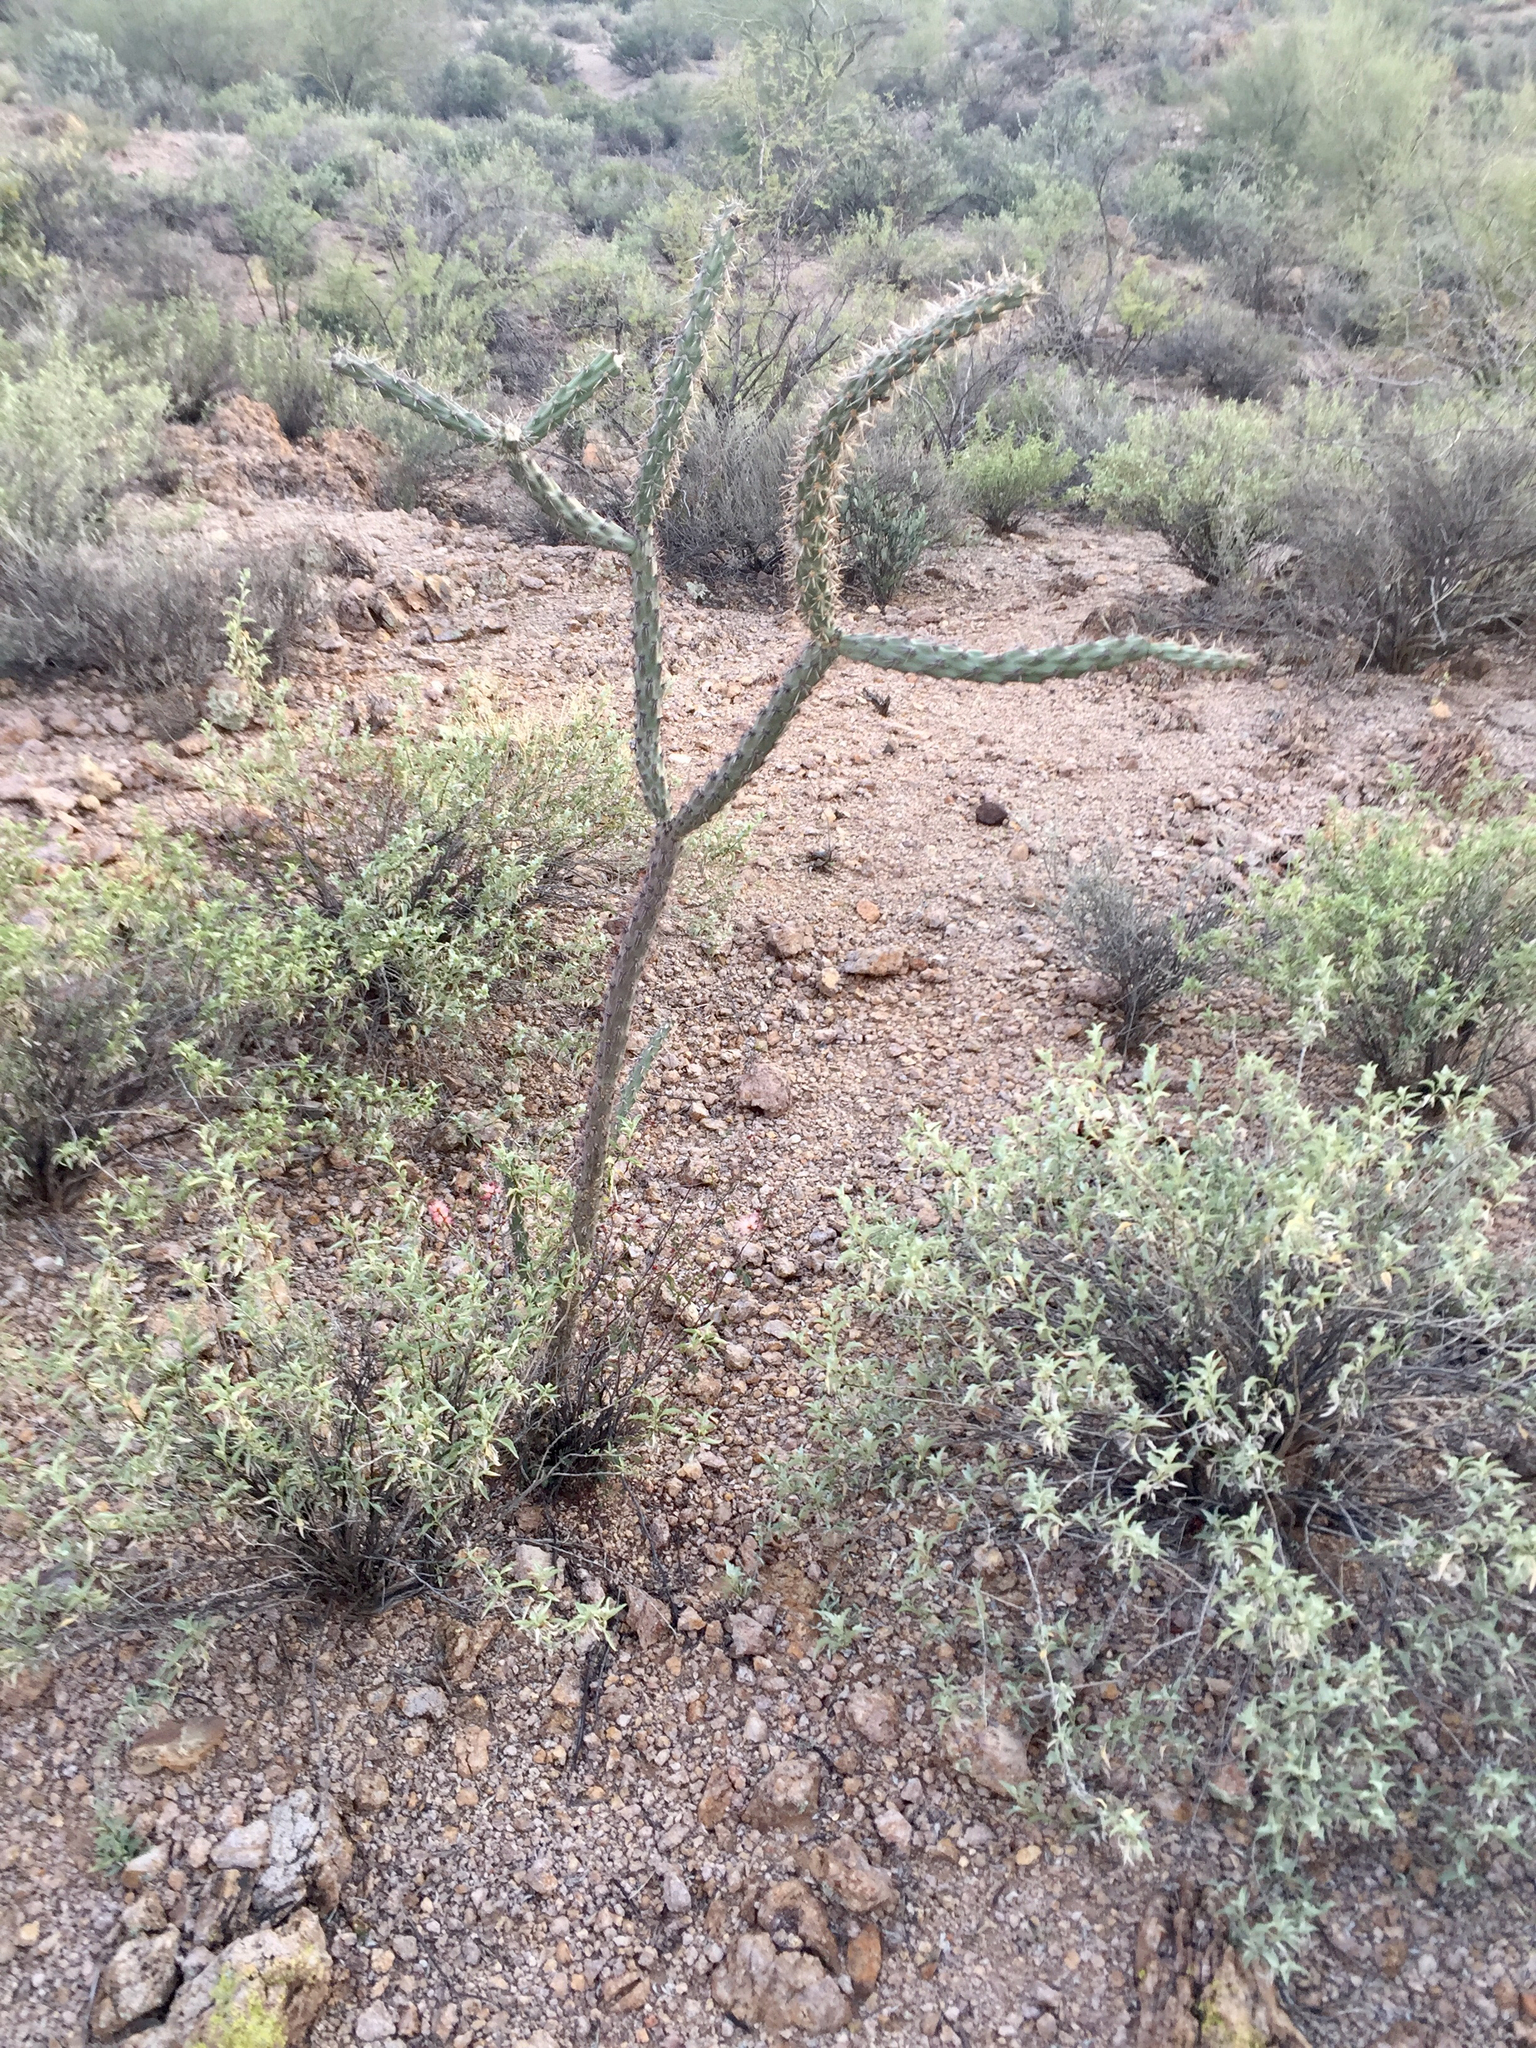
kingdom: Plantae
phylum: Tracheophyta
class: Magnoliopsida
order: Caryophyllales
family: Cactaceae
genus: Cylindropuntia
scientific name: Cylindropuntia acanthocarpa
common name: Buckhorn cholla
